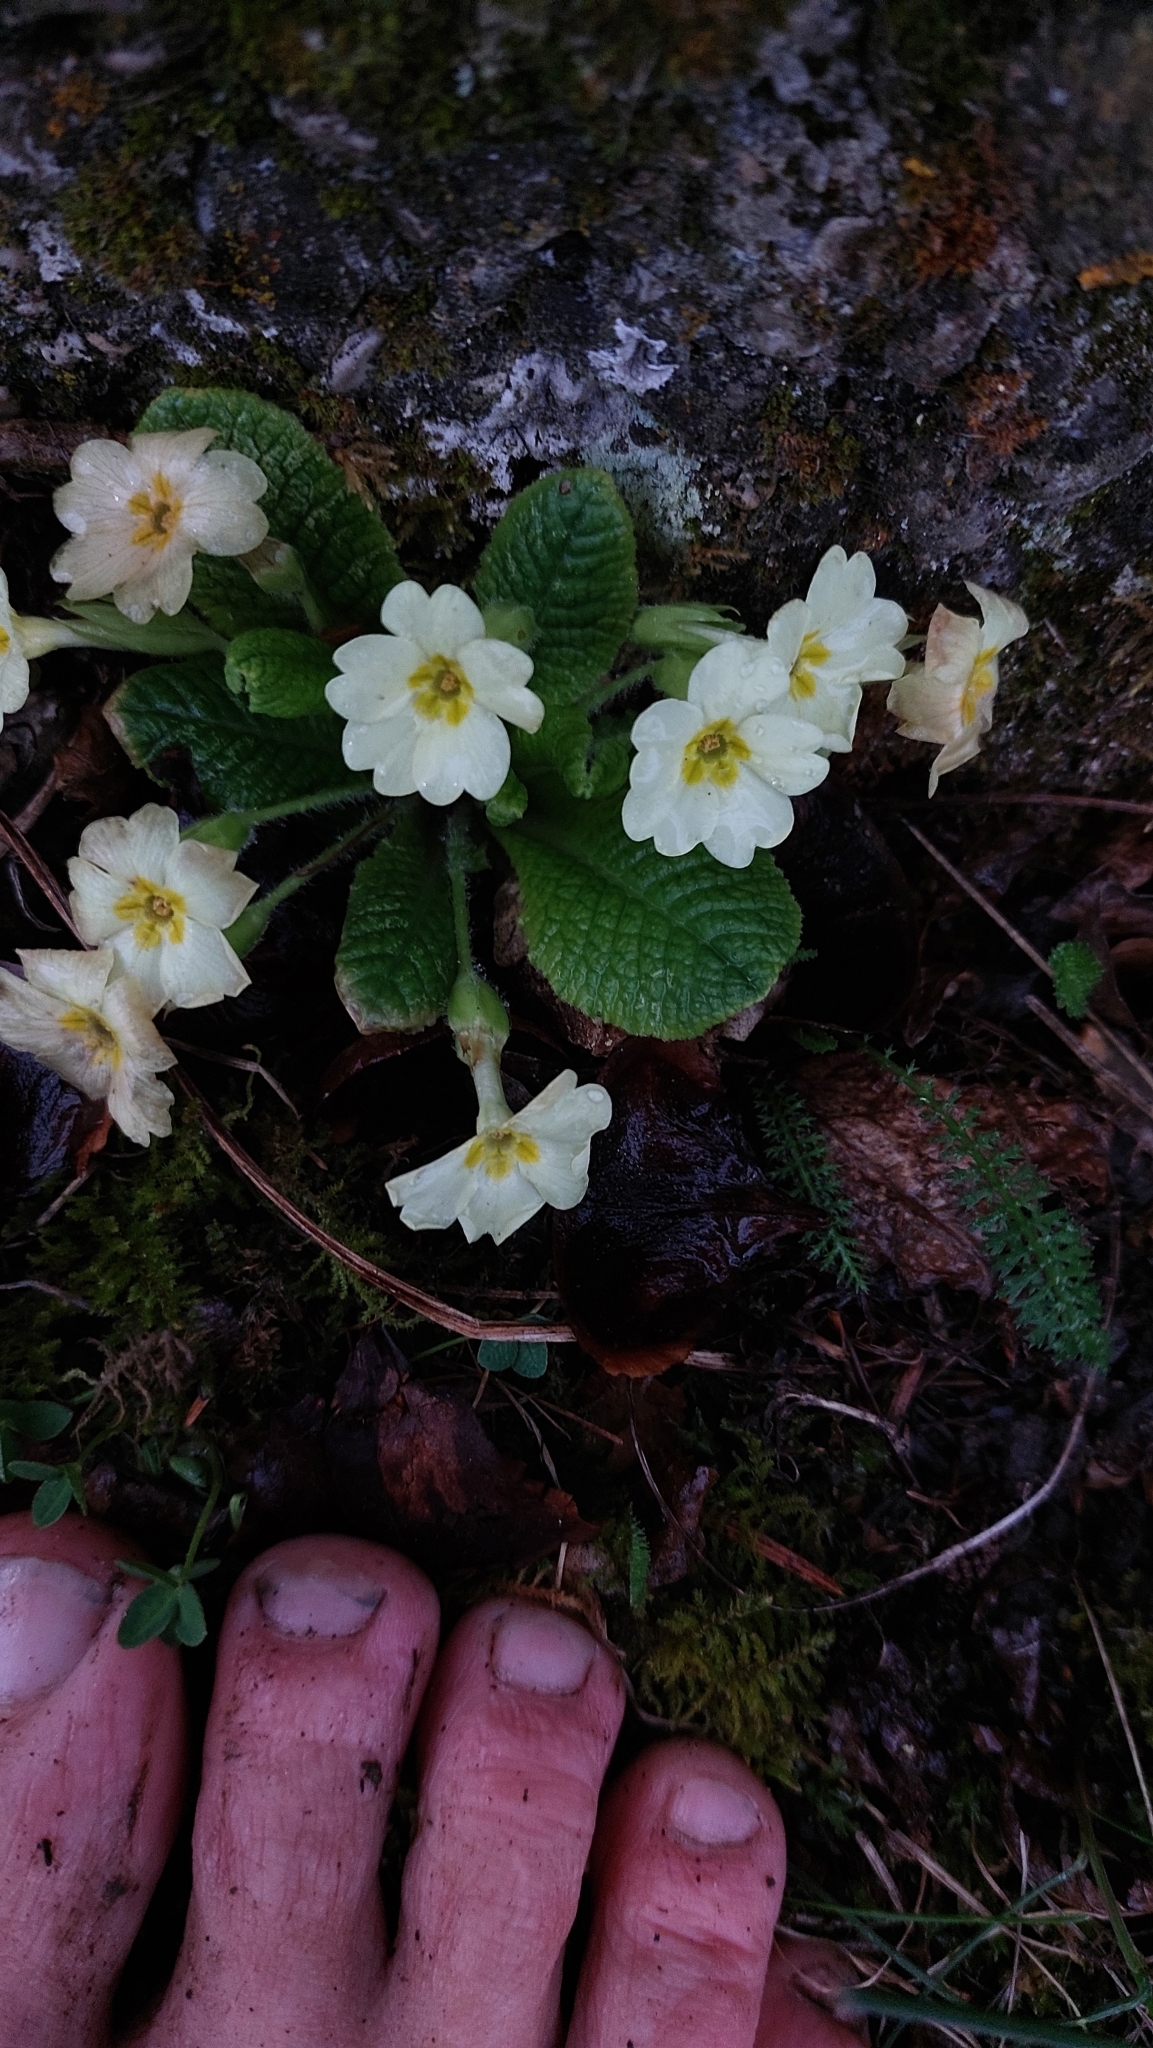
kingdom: Plantae
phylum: Tracheophyta
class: Magnoliopsida
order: Ericales
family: Primulaceae
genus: Primula
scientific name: Primula vulgaris
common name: Primrose
